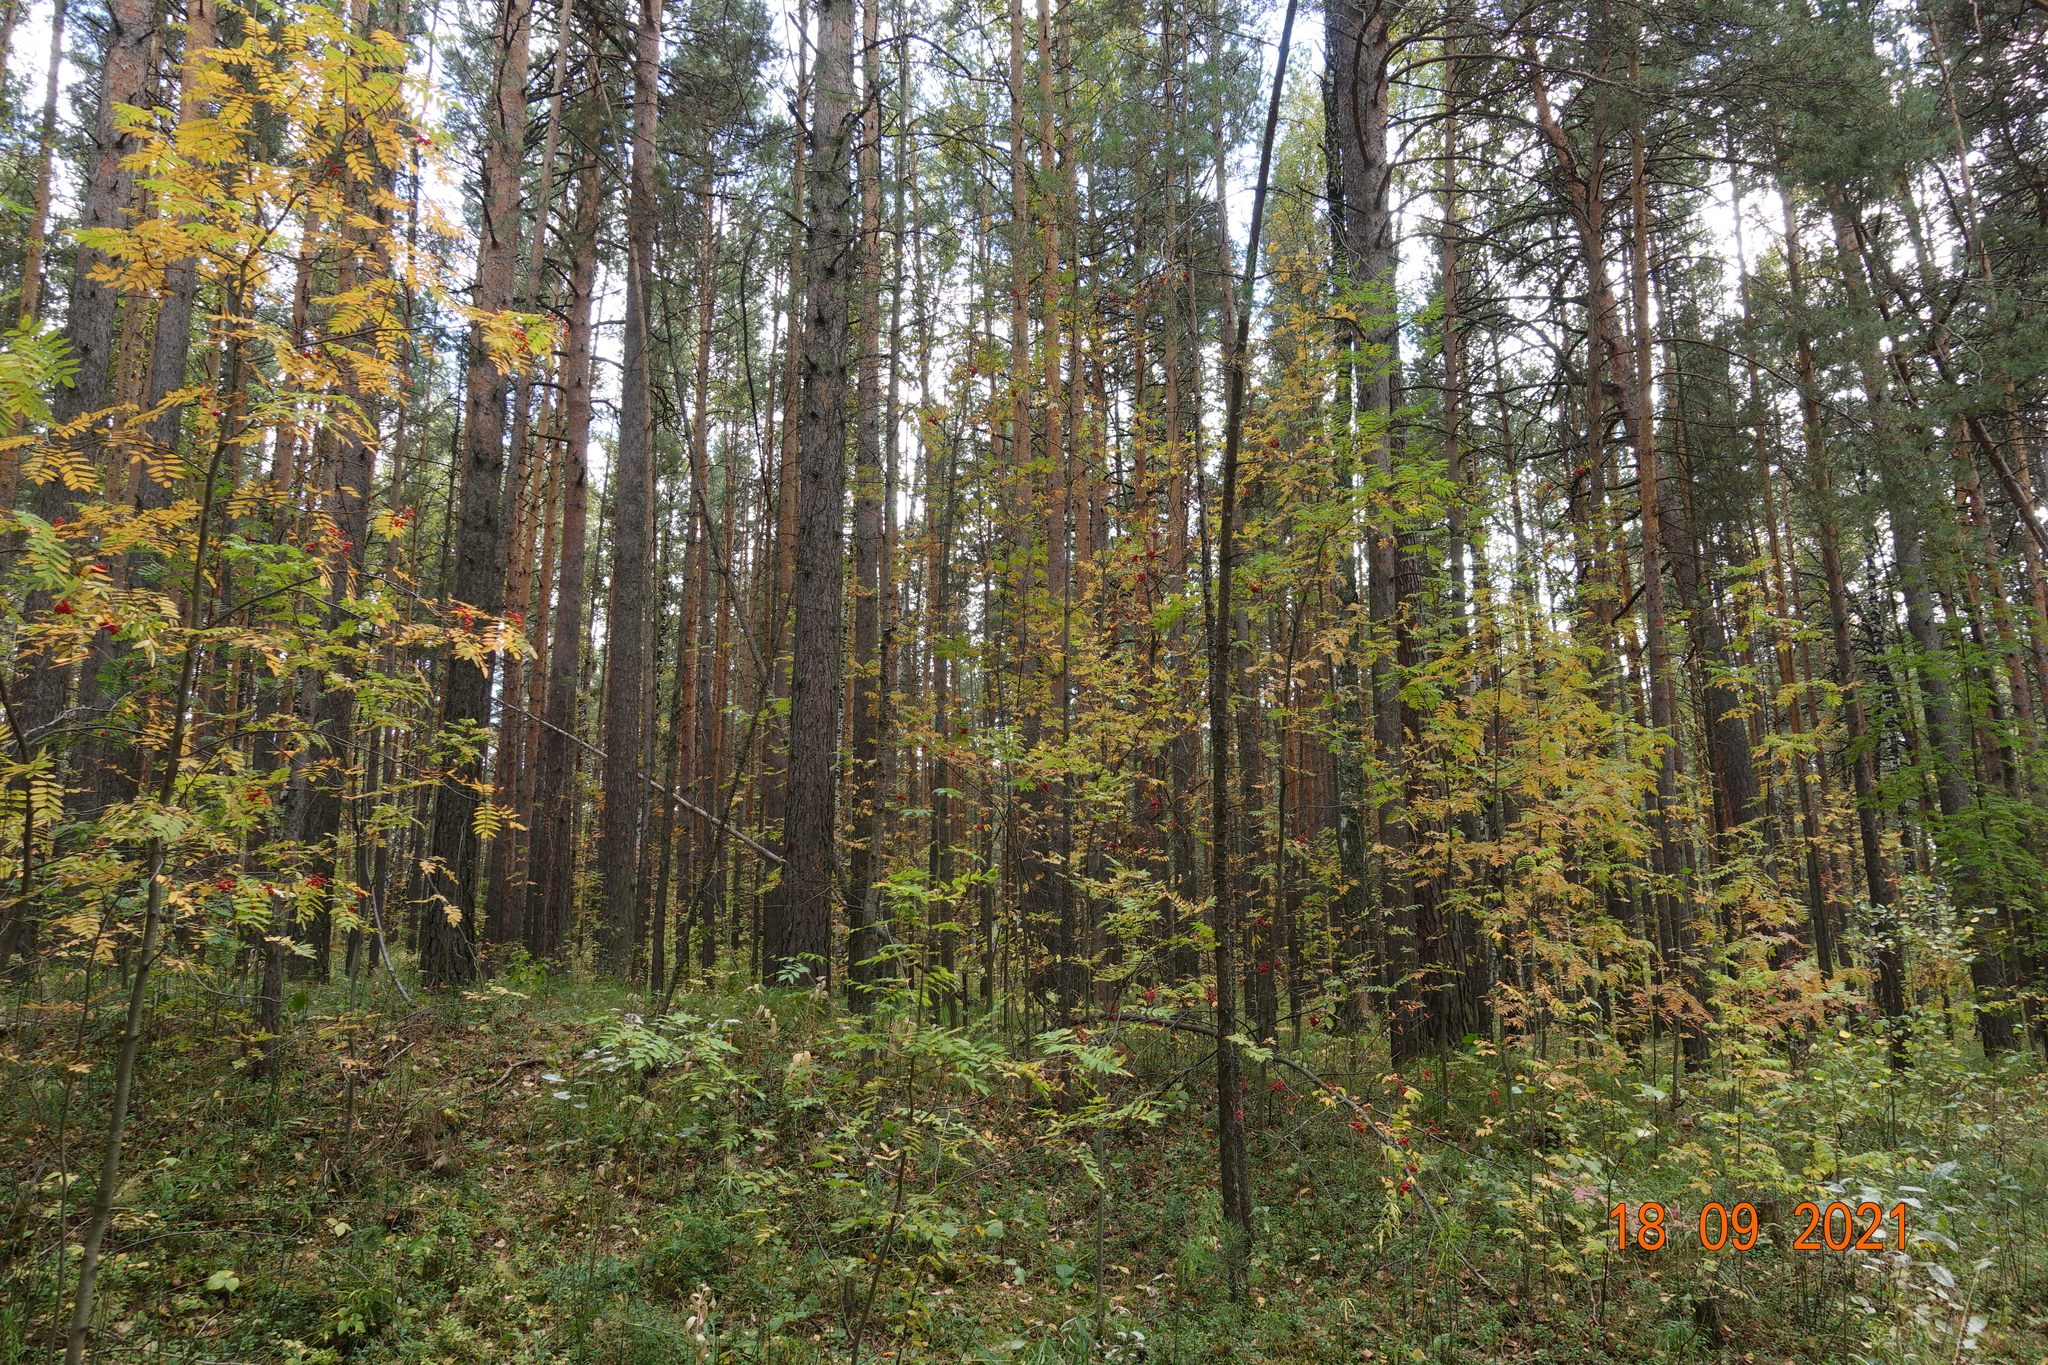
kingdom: Plantae
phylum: Tracheophyta
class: Magnoliopsida
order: Rosales
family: Rosaceae
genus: Sorbus
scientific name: Sorbus aucuparia
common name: Rowan
